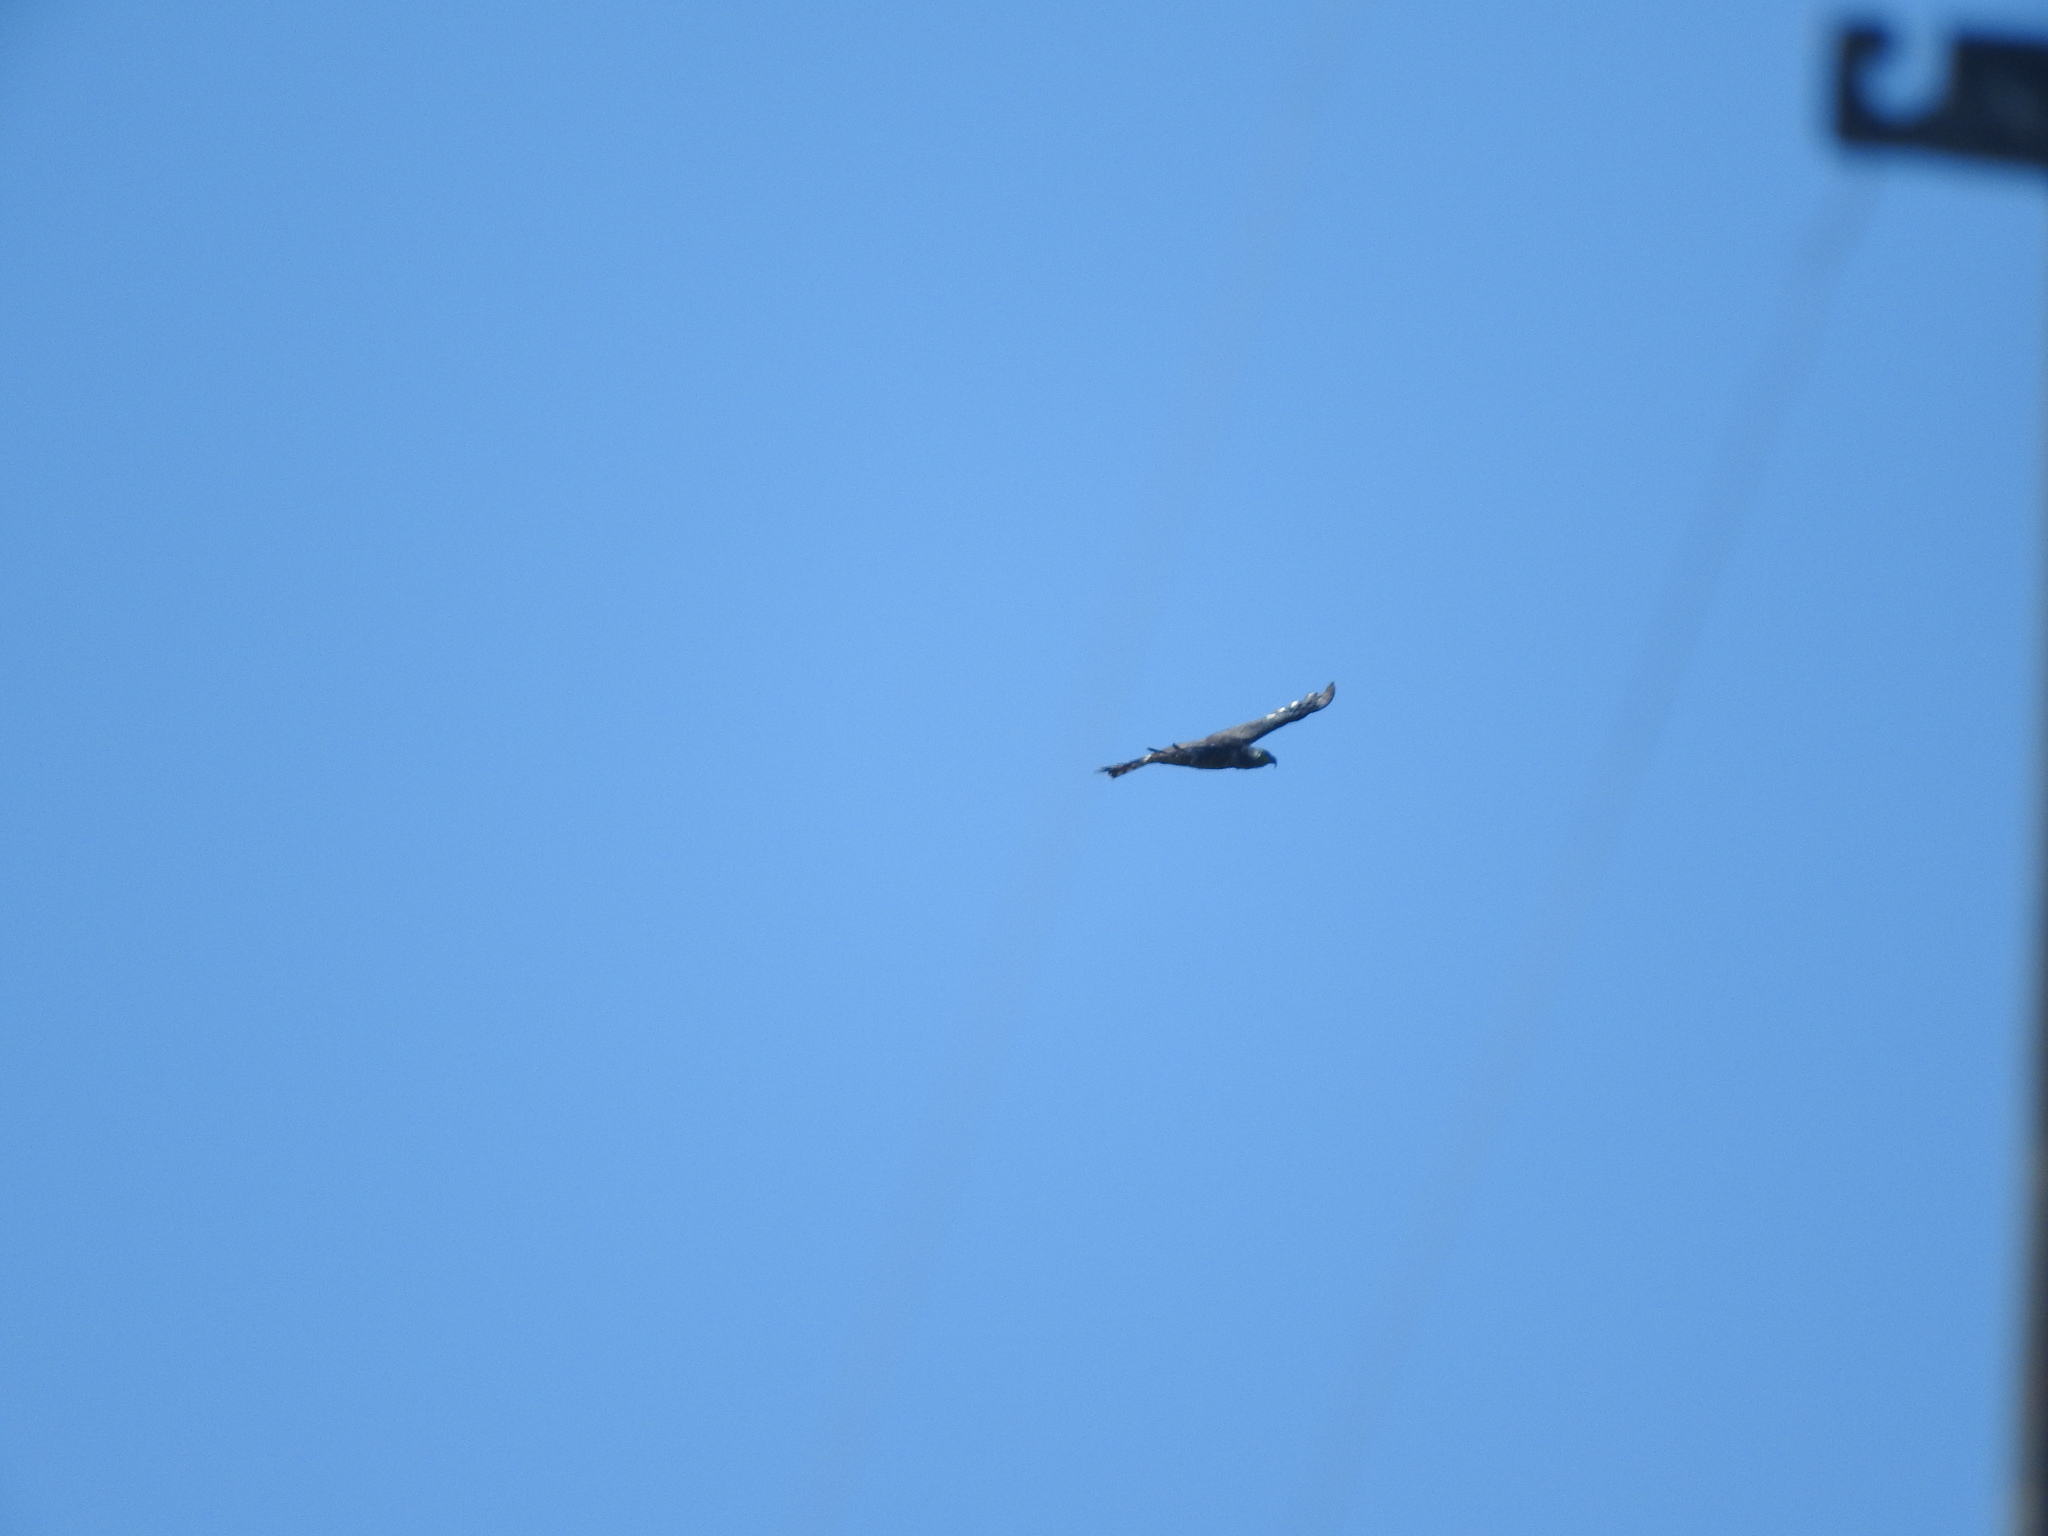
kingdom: Animalia
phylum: Chordata
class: Aves
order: Accipitriformes
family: Accipitridae
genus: Chondrohierax
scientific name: Chondrohierax uncinatus
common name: Hook-billed kite
